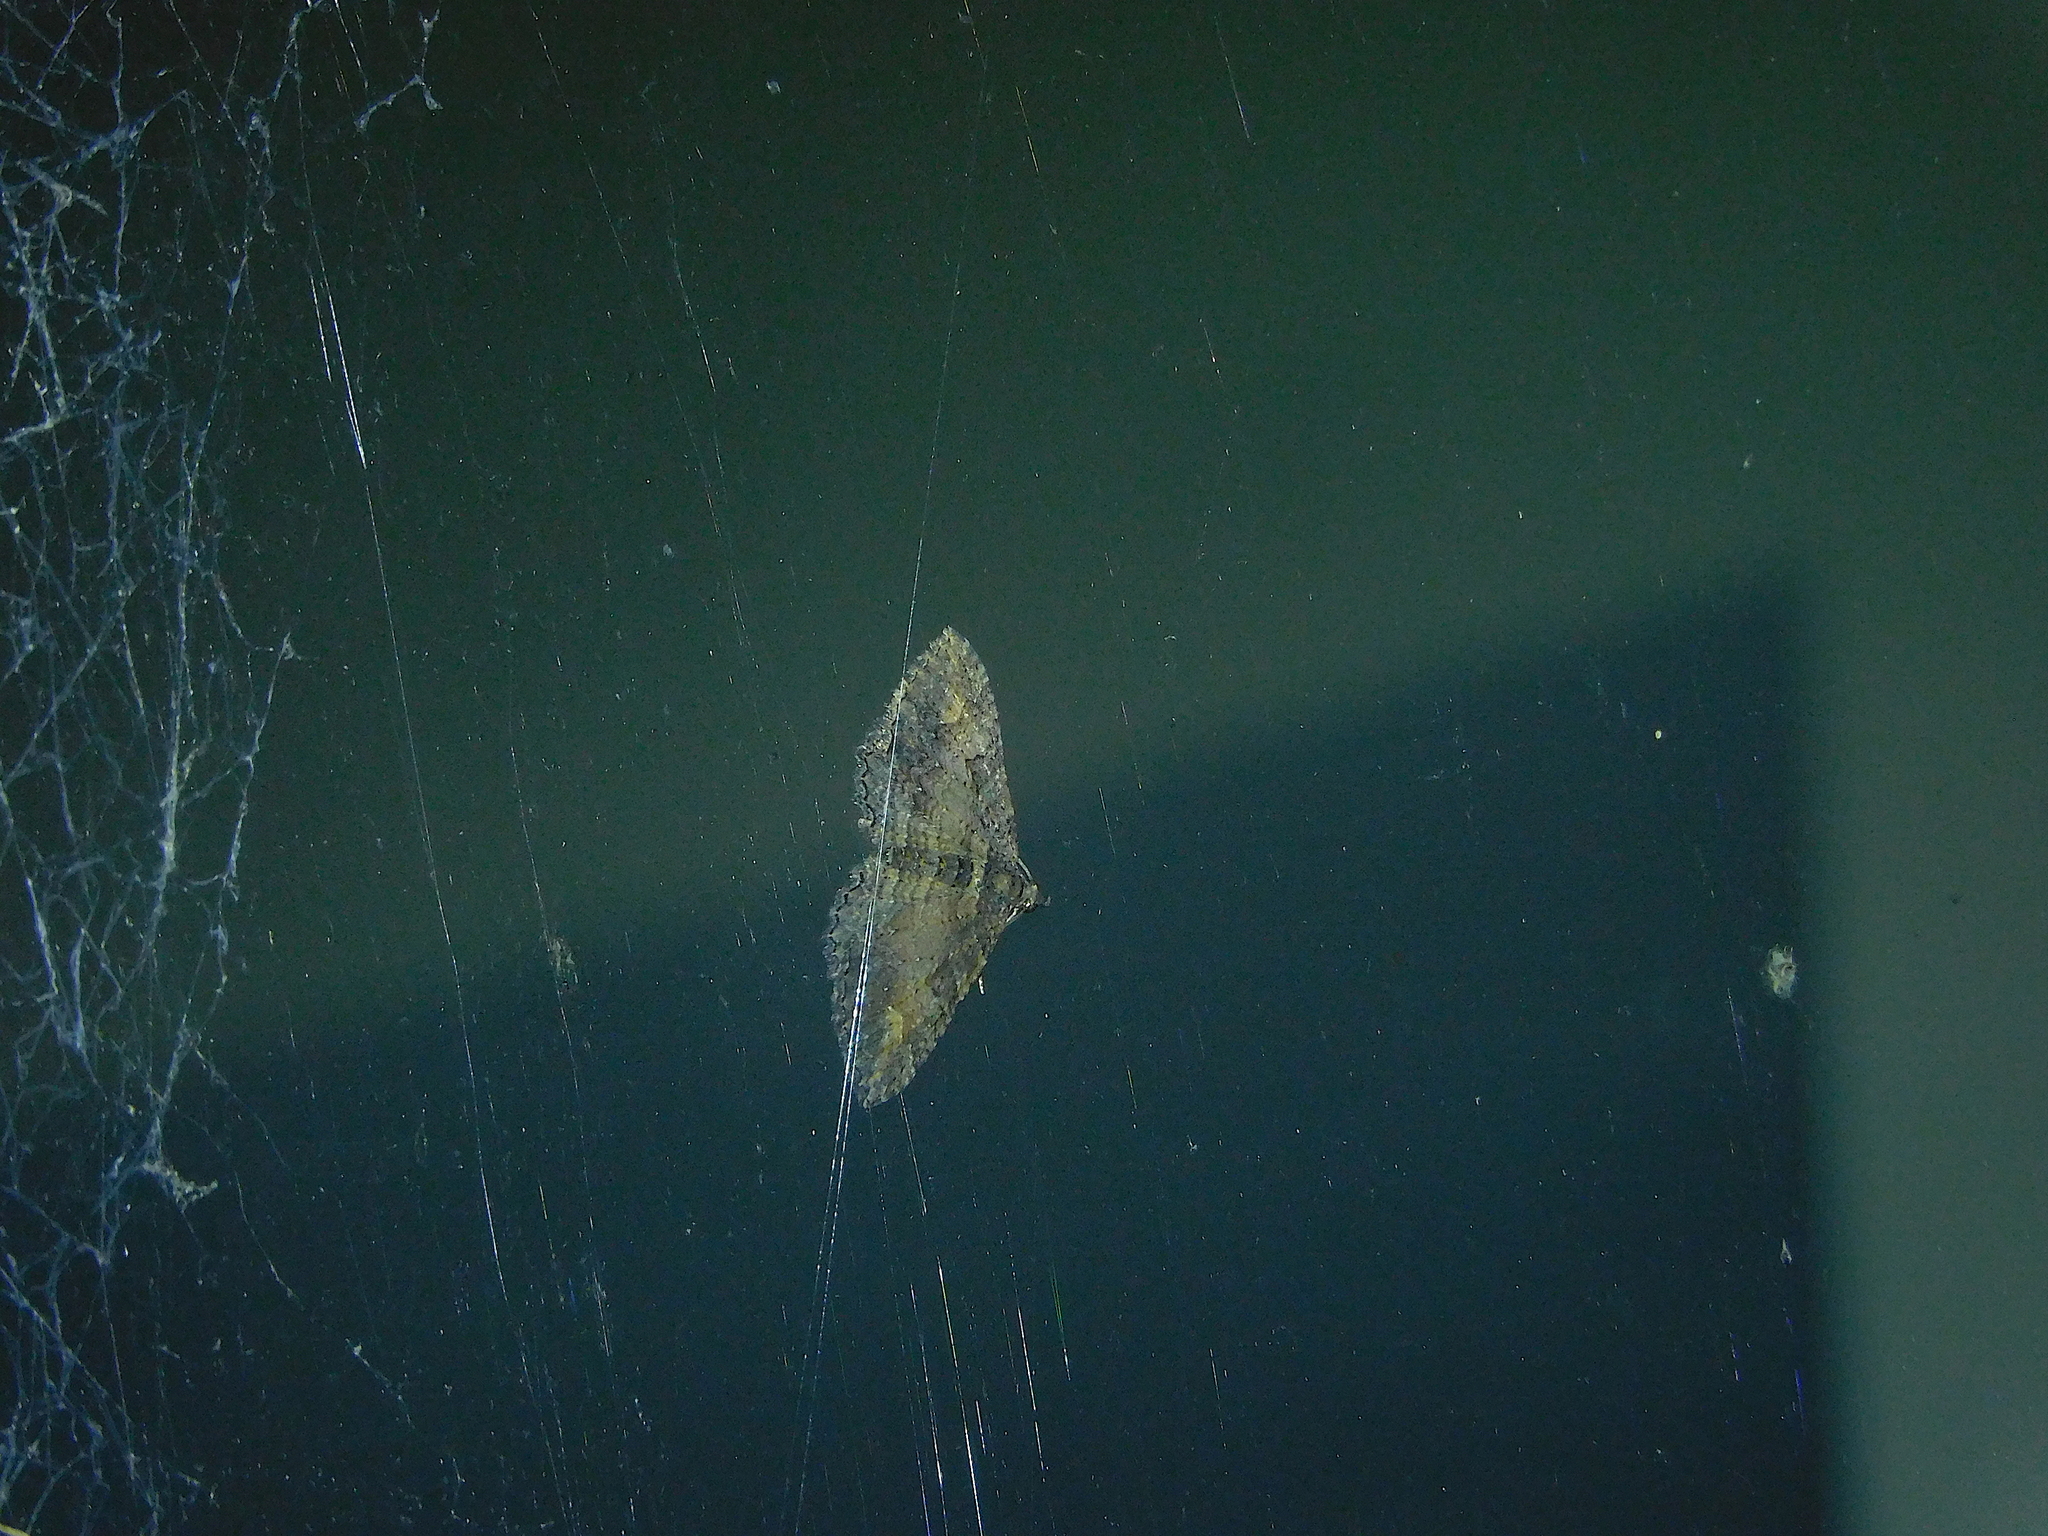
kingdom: Animalia
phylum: Arthropoda
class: Insecta
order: Lepidoptera
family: Geometridae
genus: Eupithecia
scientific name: Eupithecia Eucymatoge scotodes
